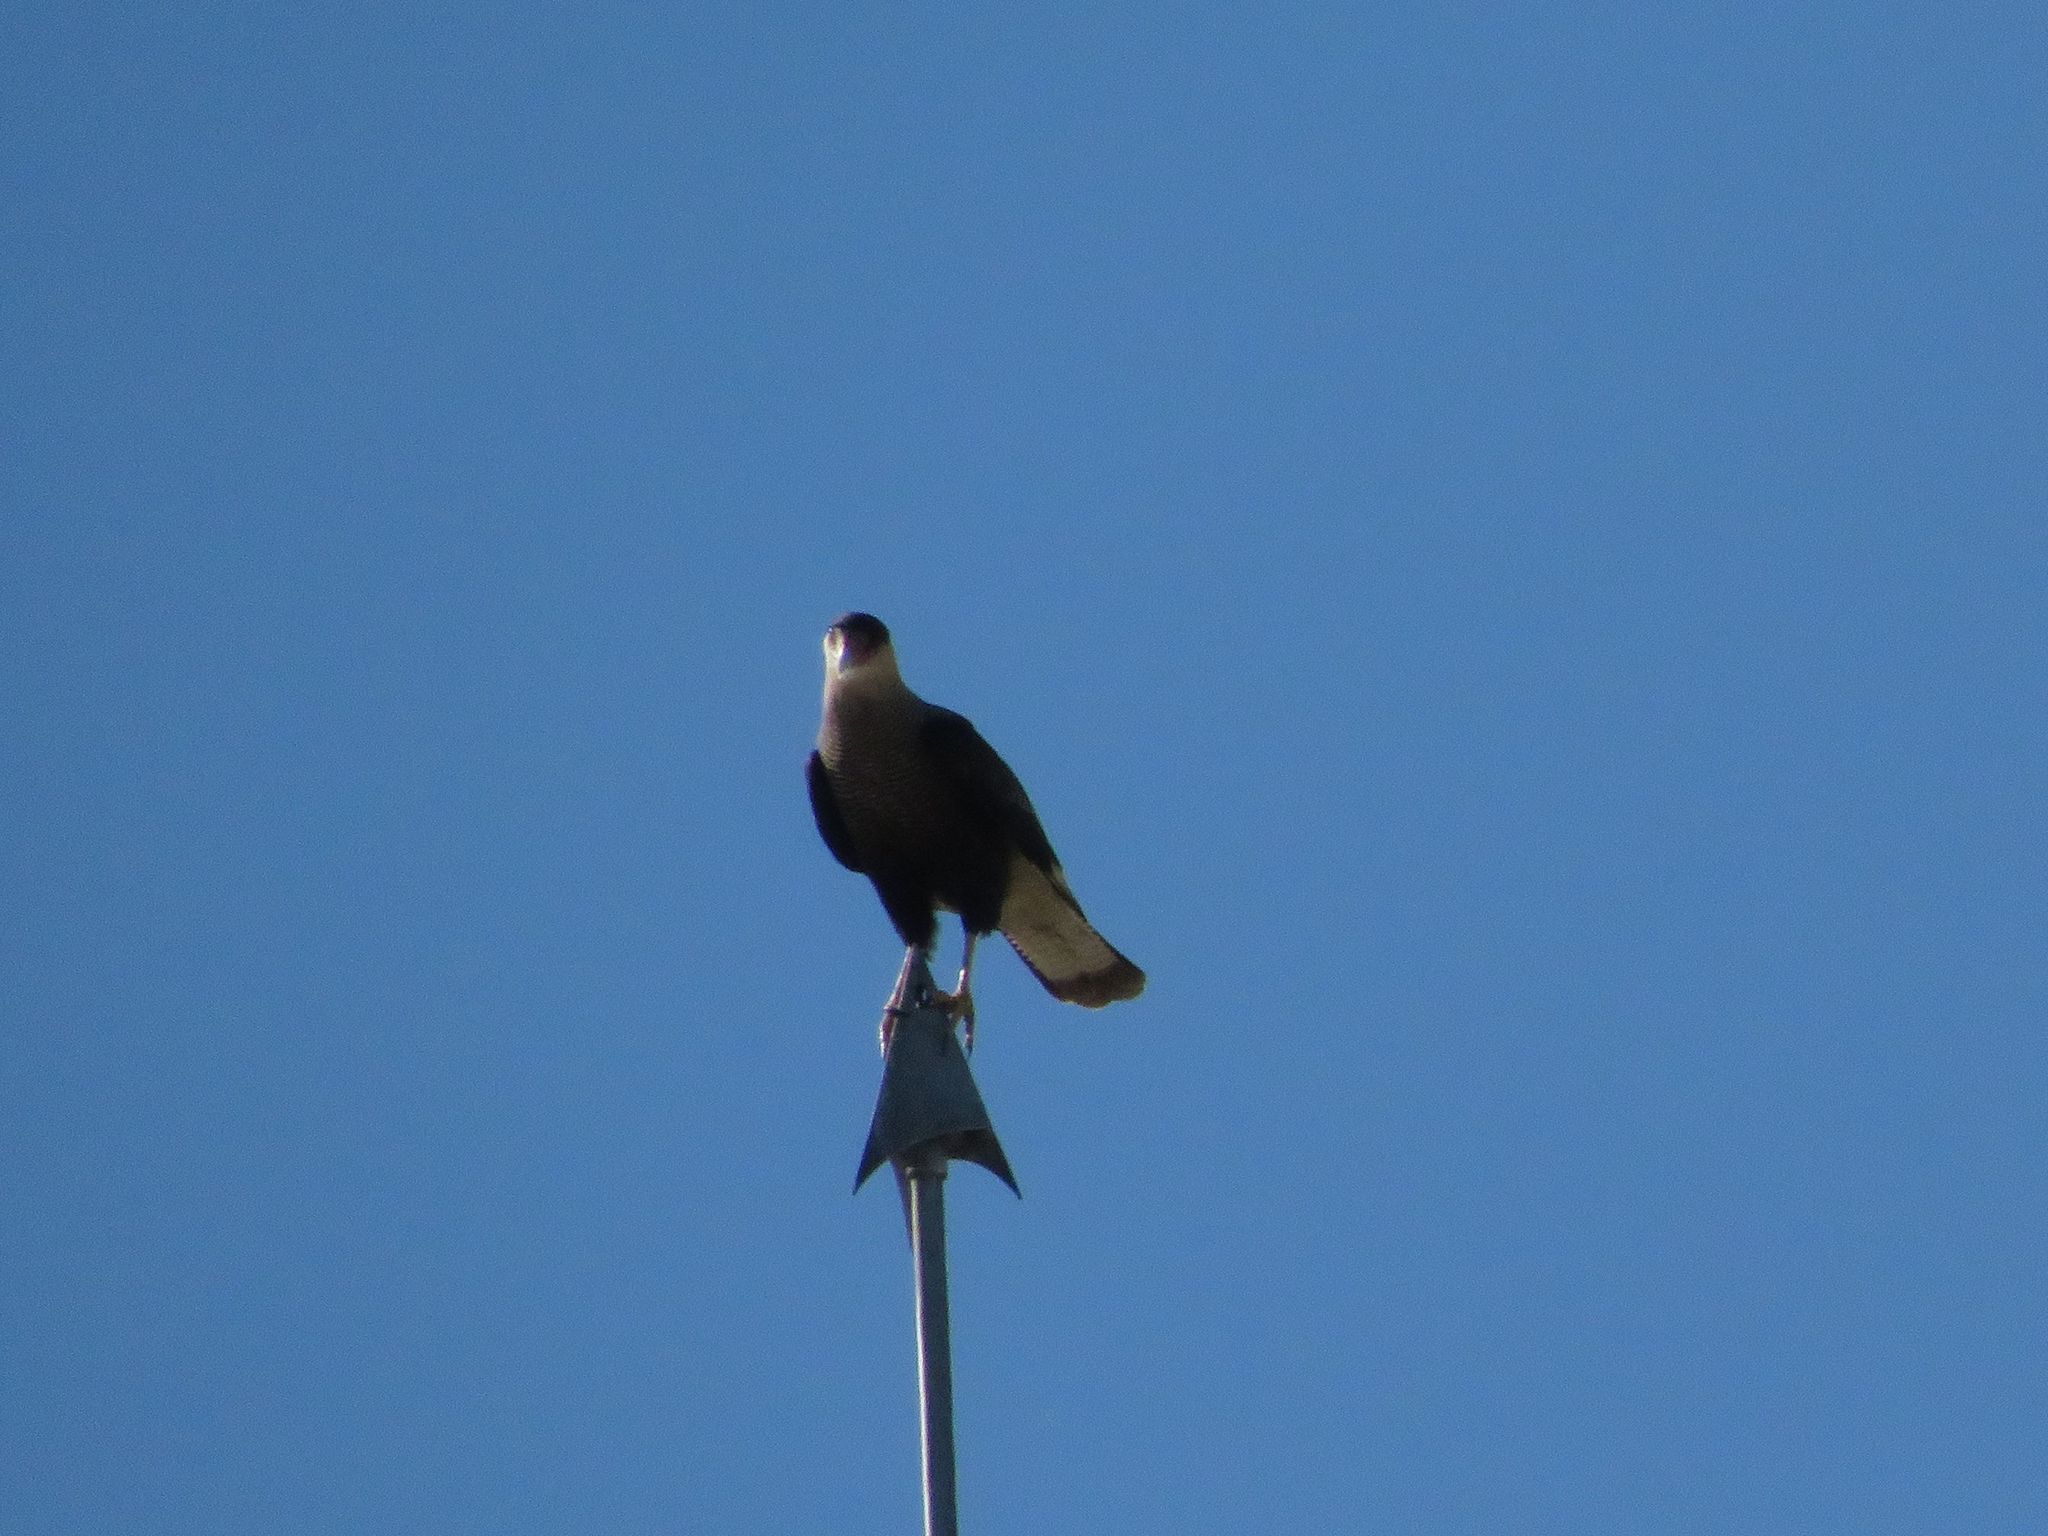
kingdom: Animalia
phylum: Chordata
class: Aves
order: Falconiformes
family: Falconidae
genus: Caracara
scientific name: Caracara plancus
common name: Southern caracara
